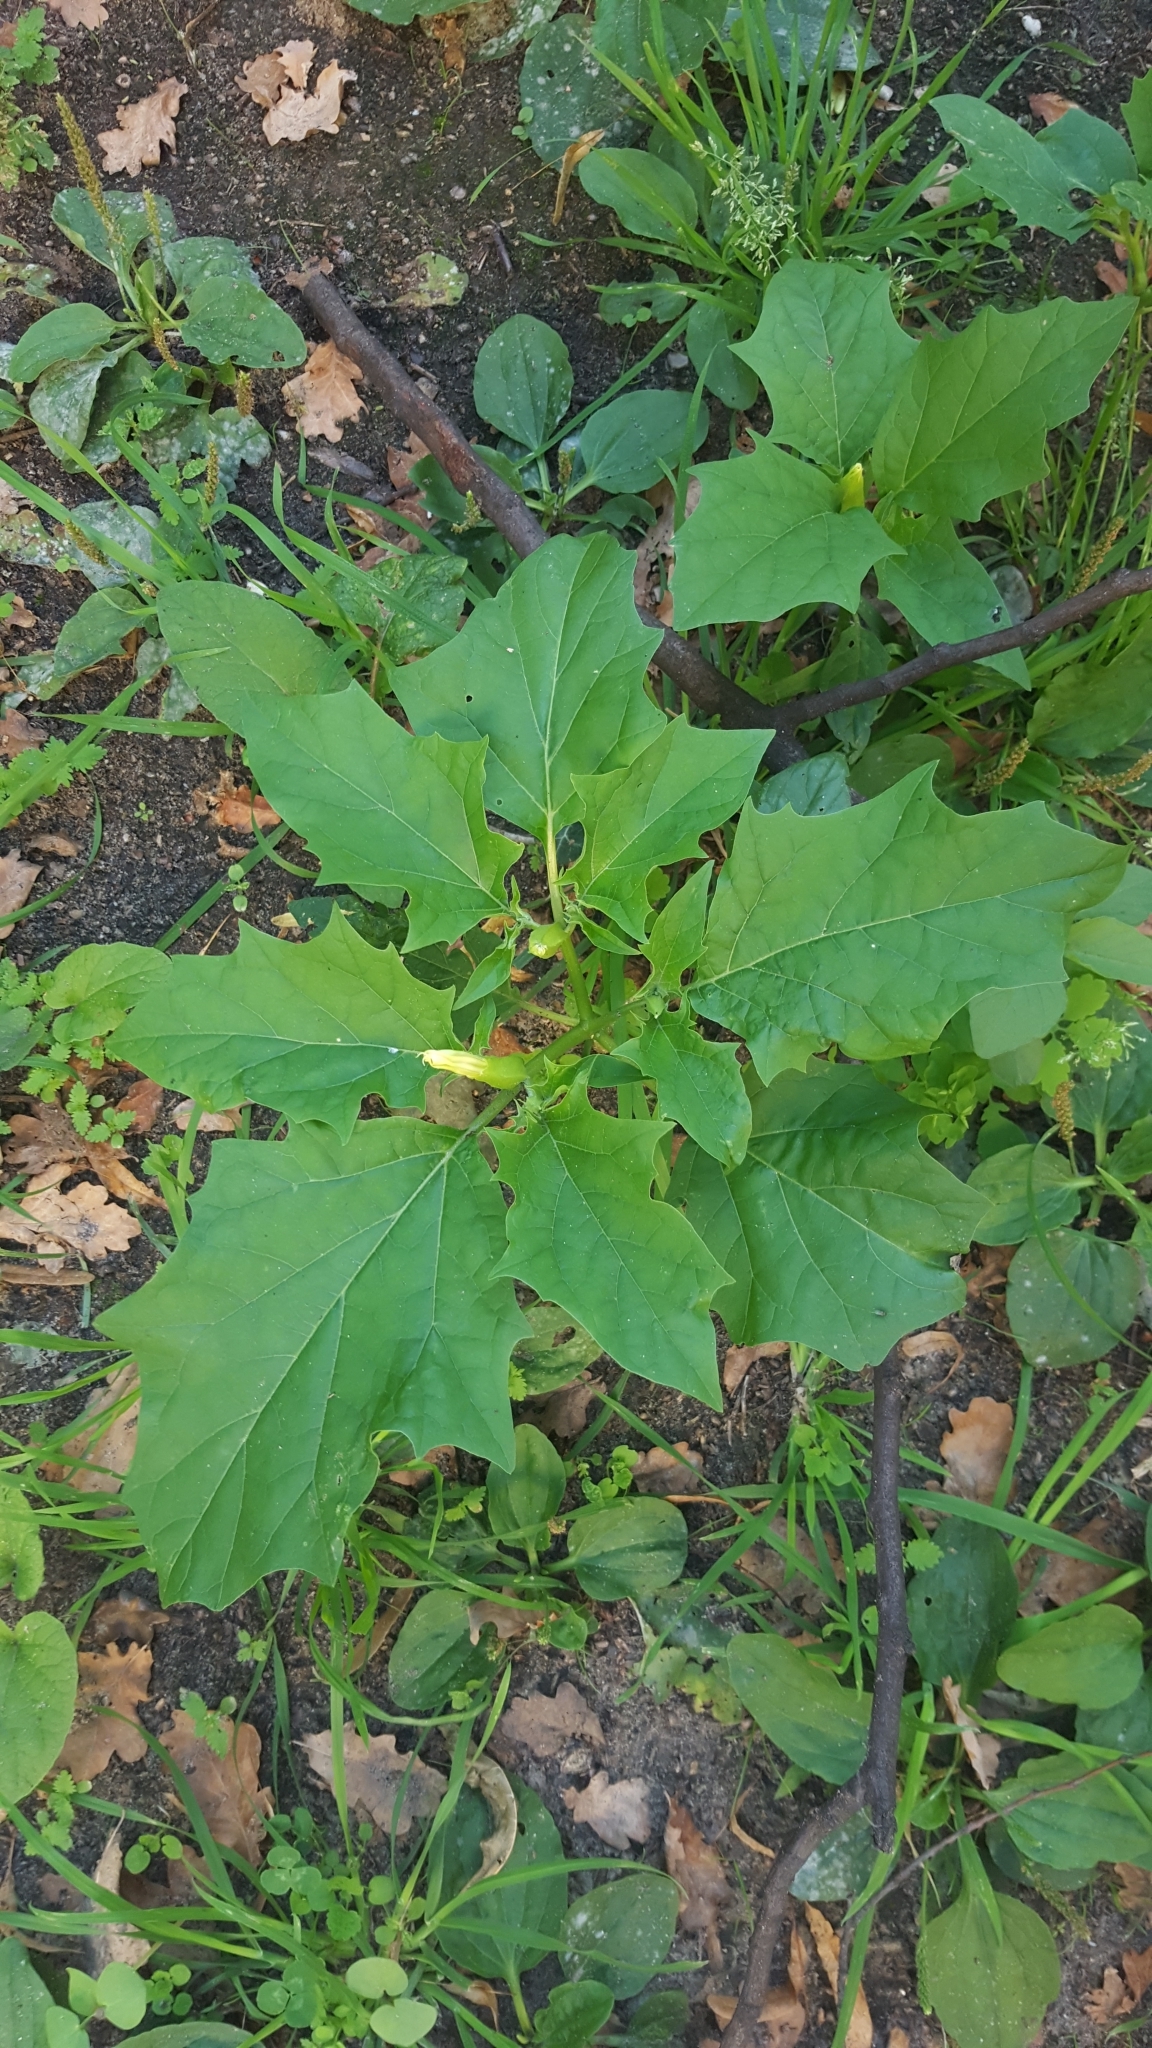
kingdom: Plantae
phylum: Tracheophyta
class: Magnoliopsida
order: Solanales
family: Solanaceae
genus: Datura
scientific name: Datura stramonium
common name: Thorn-apple
